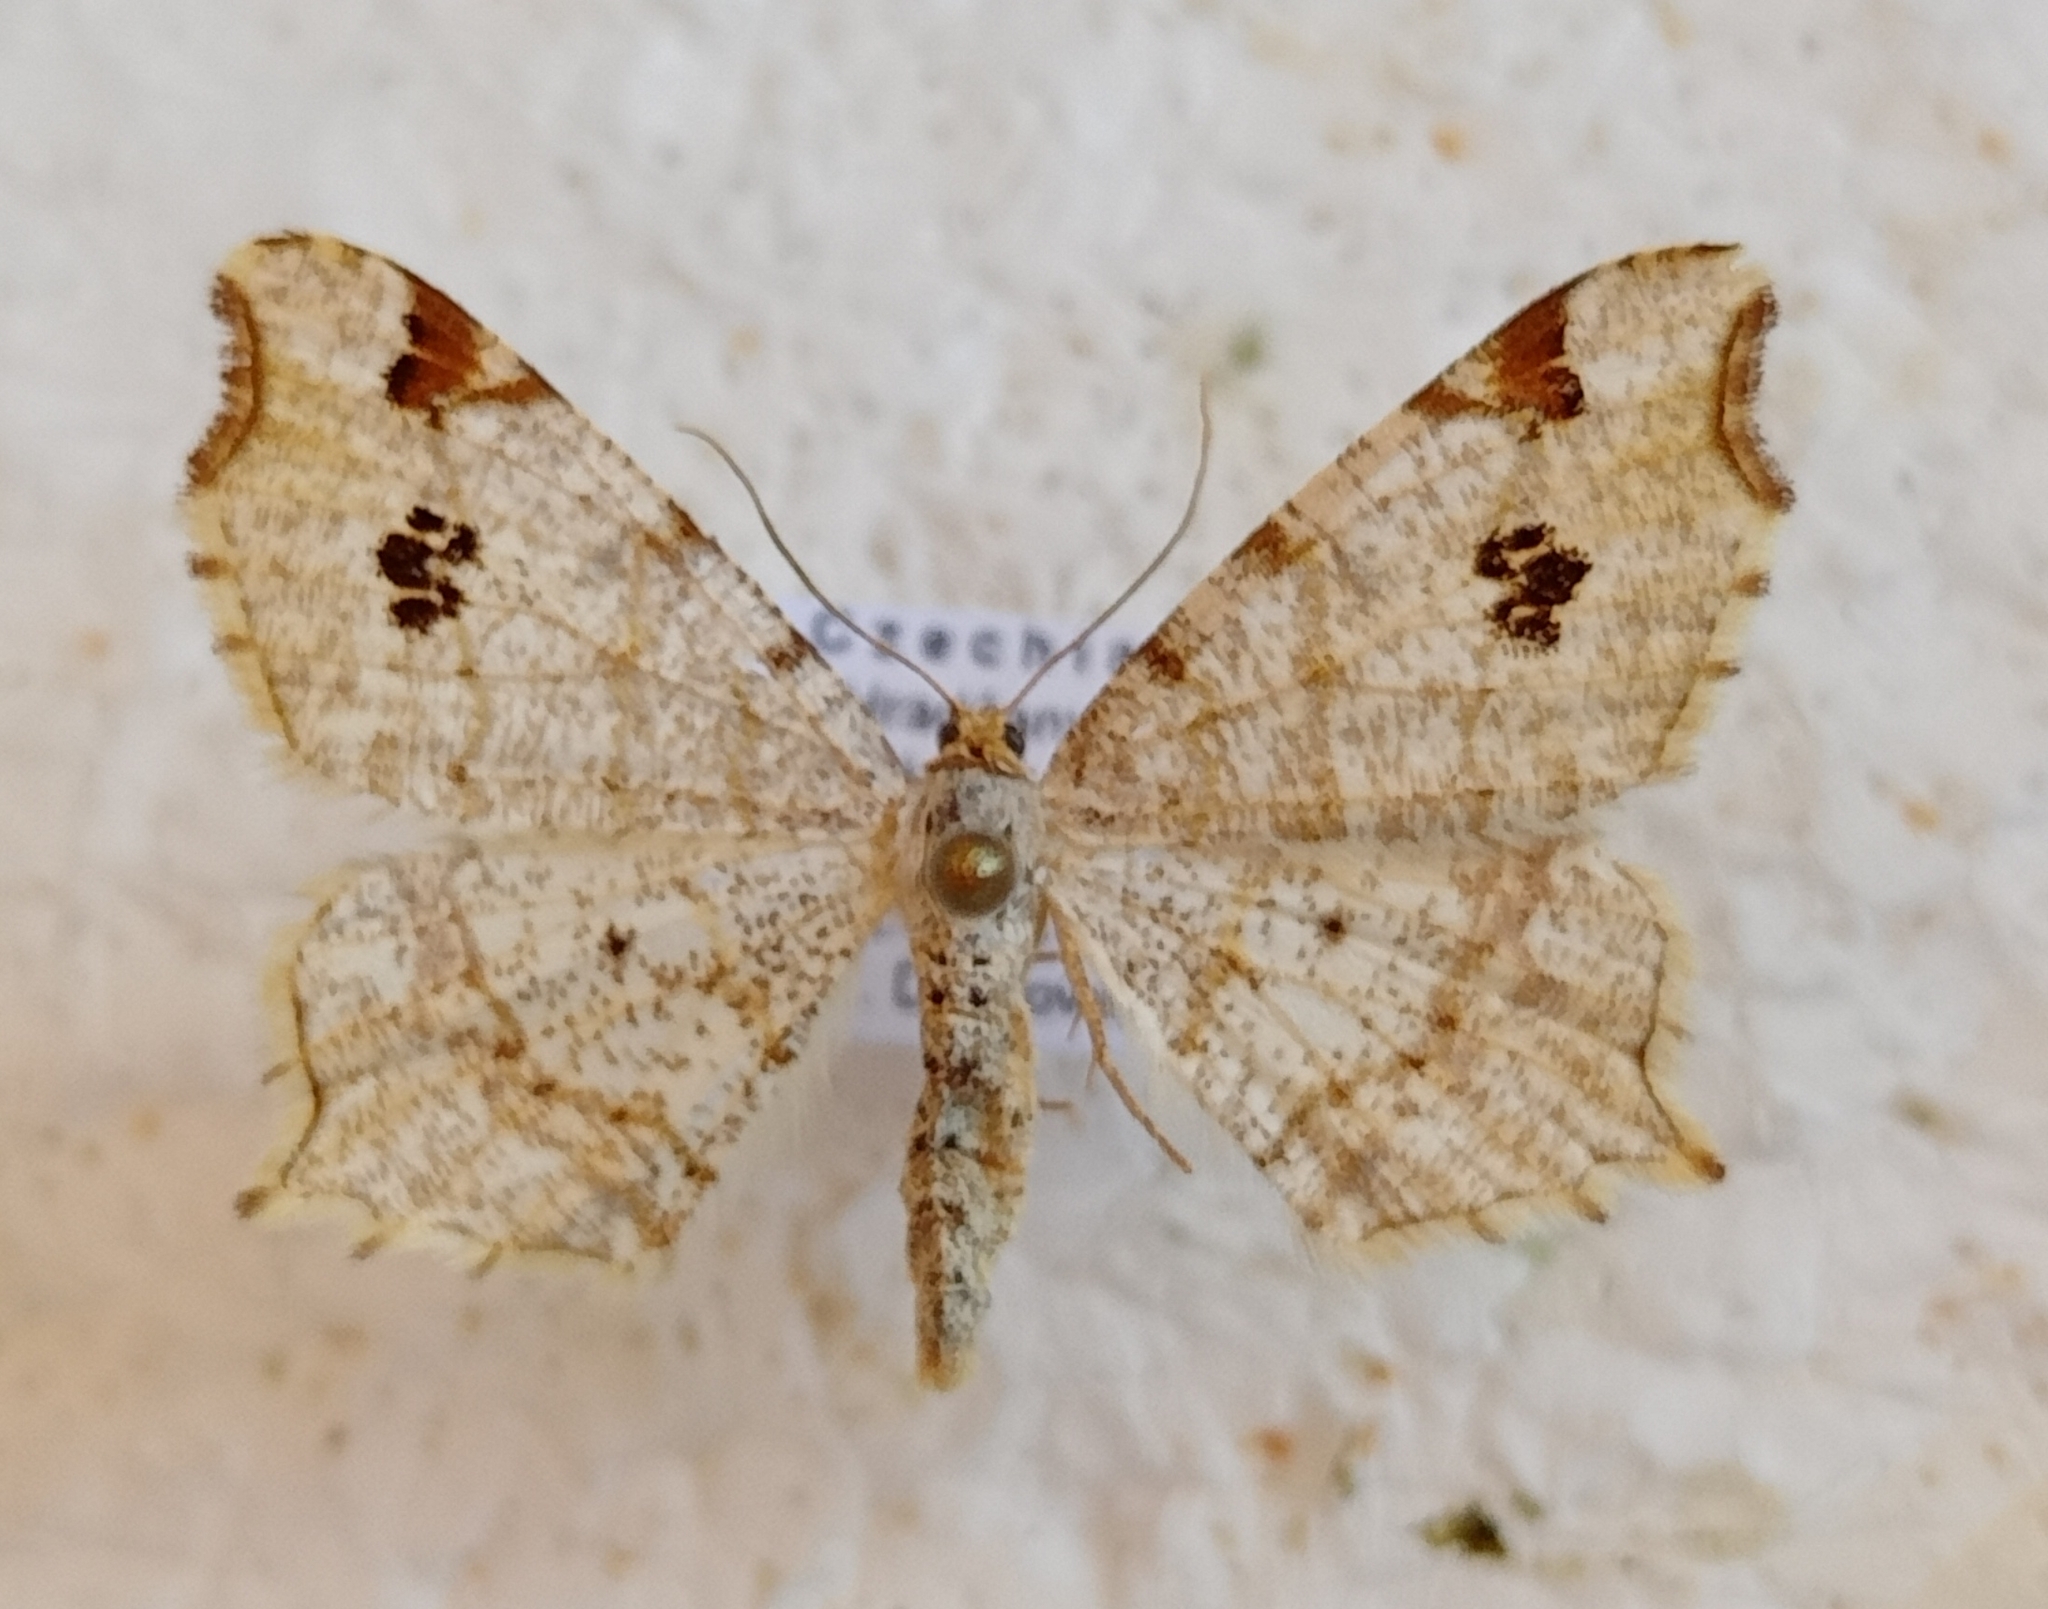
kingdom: Animalia
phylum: Arthropoda
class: Insecta
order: Lepidoptera
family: Geometridae
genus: Macaria
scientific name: Macaria notata
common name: Peacock moth
